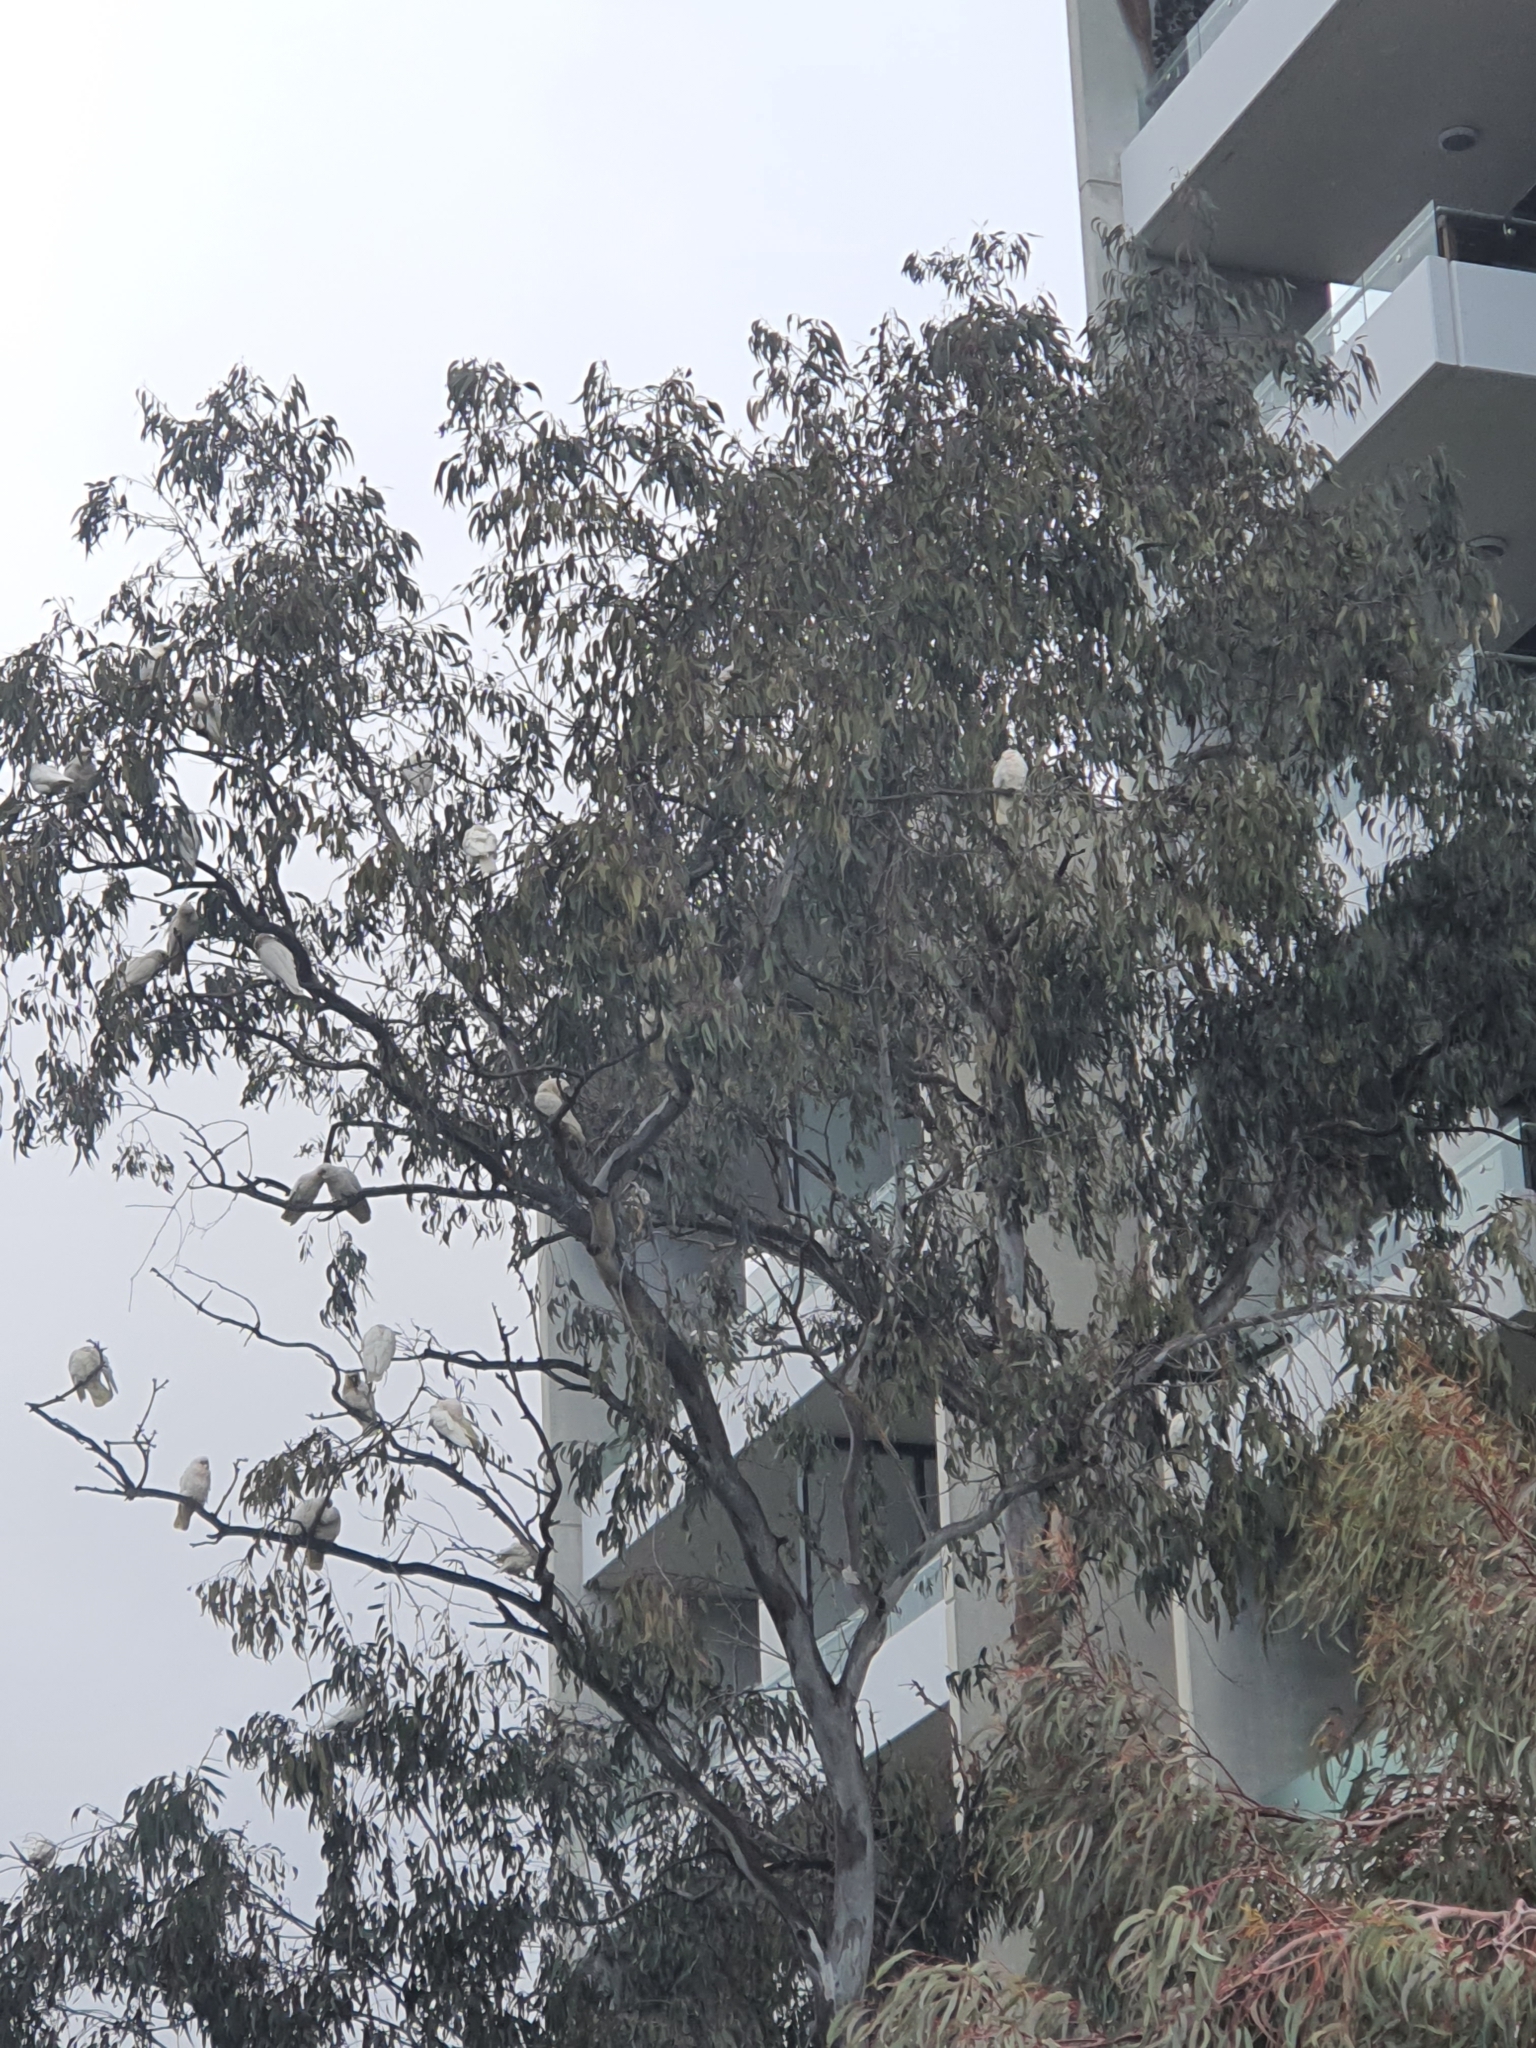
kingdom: Animalia
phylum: Chordata
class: Aves
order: Psittaciformes
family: Psittacidae
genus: Cacatua
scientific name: Cacatua sanguinea
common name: Little corella
